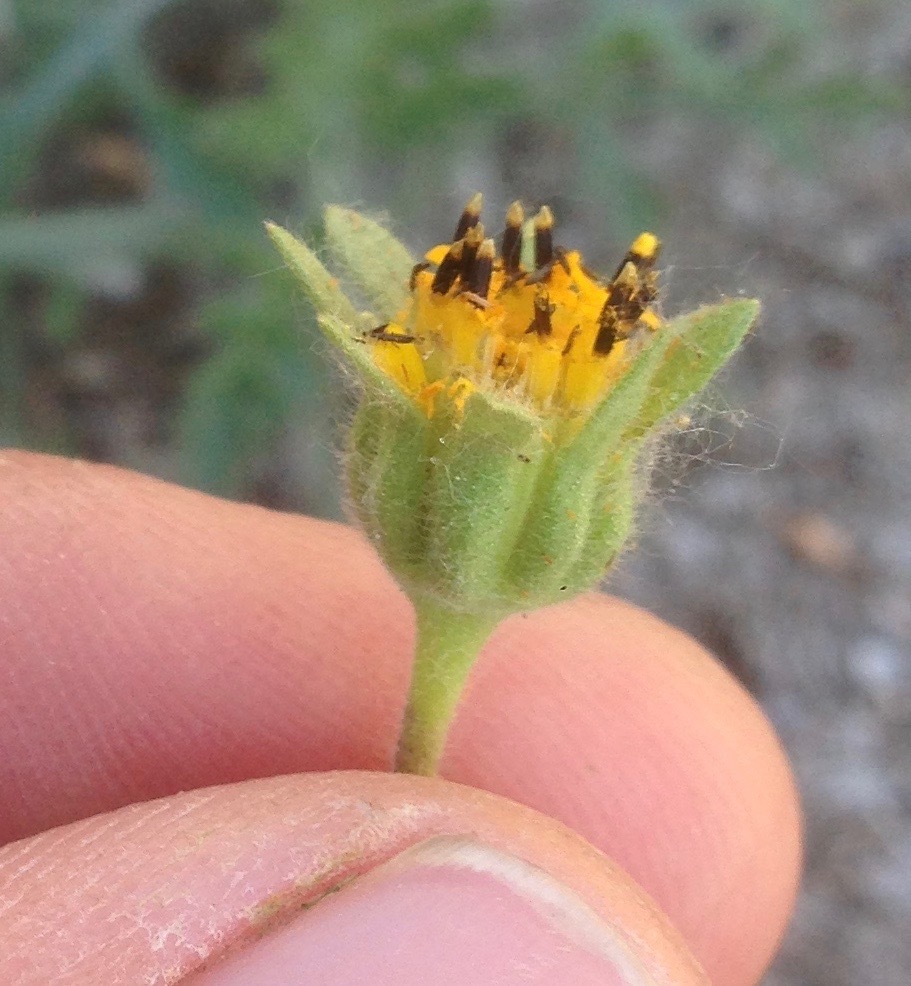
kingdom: Plantae
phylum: Tracheophyta
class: Magnoliopsida
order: Asterales
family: Asteraceae
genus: Layia
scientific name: Layia platyglossa
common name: Tidy-tips
